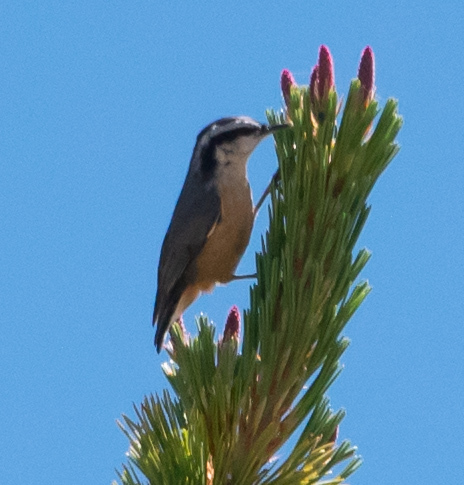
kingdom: Animalia
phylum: Chordata
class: Aves
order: Passeriformes
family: Sittidae
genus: Sitta
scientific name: Sitta canadensis
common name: Red-breasted nuthatch
